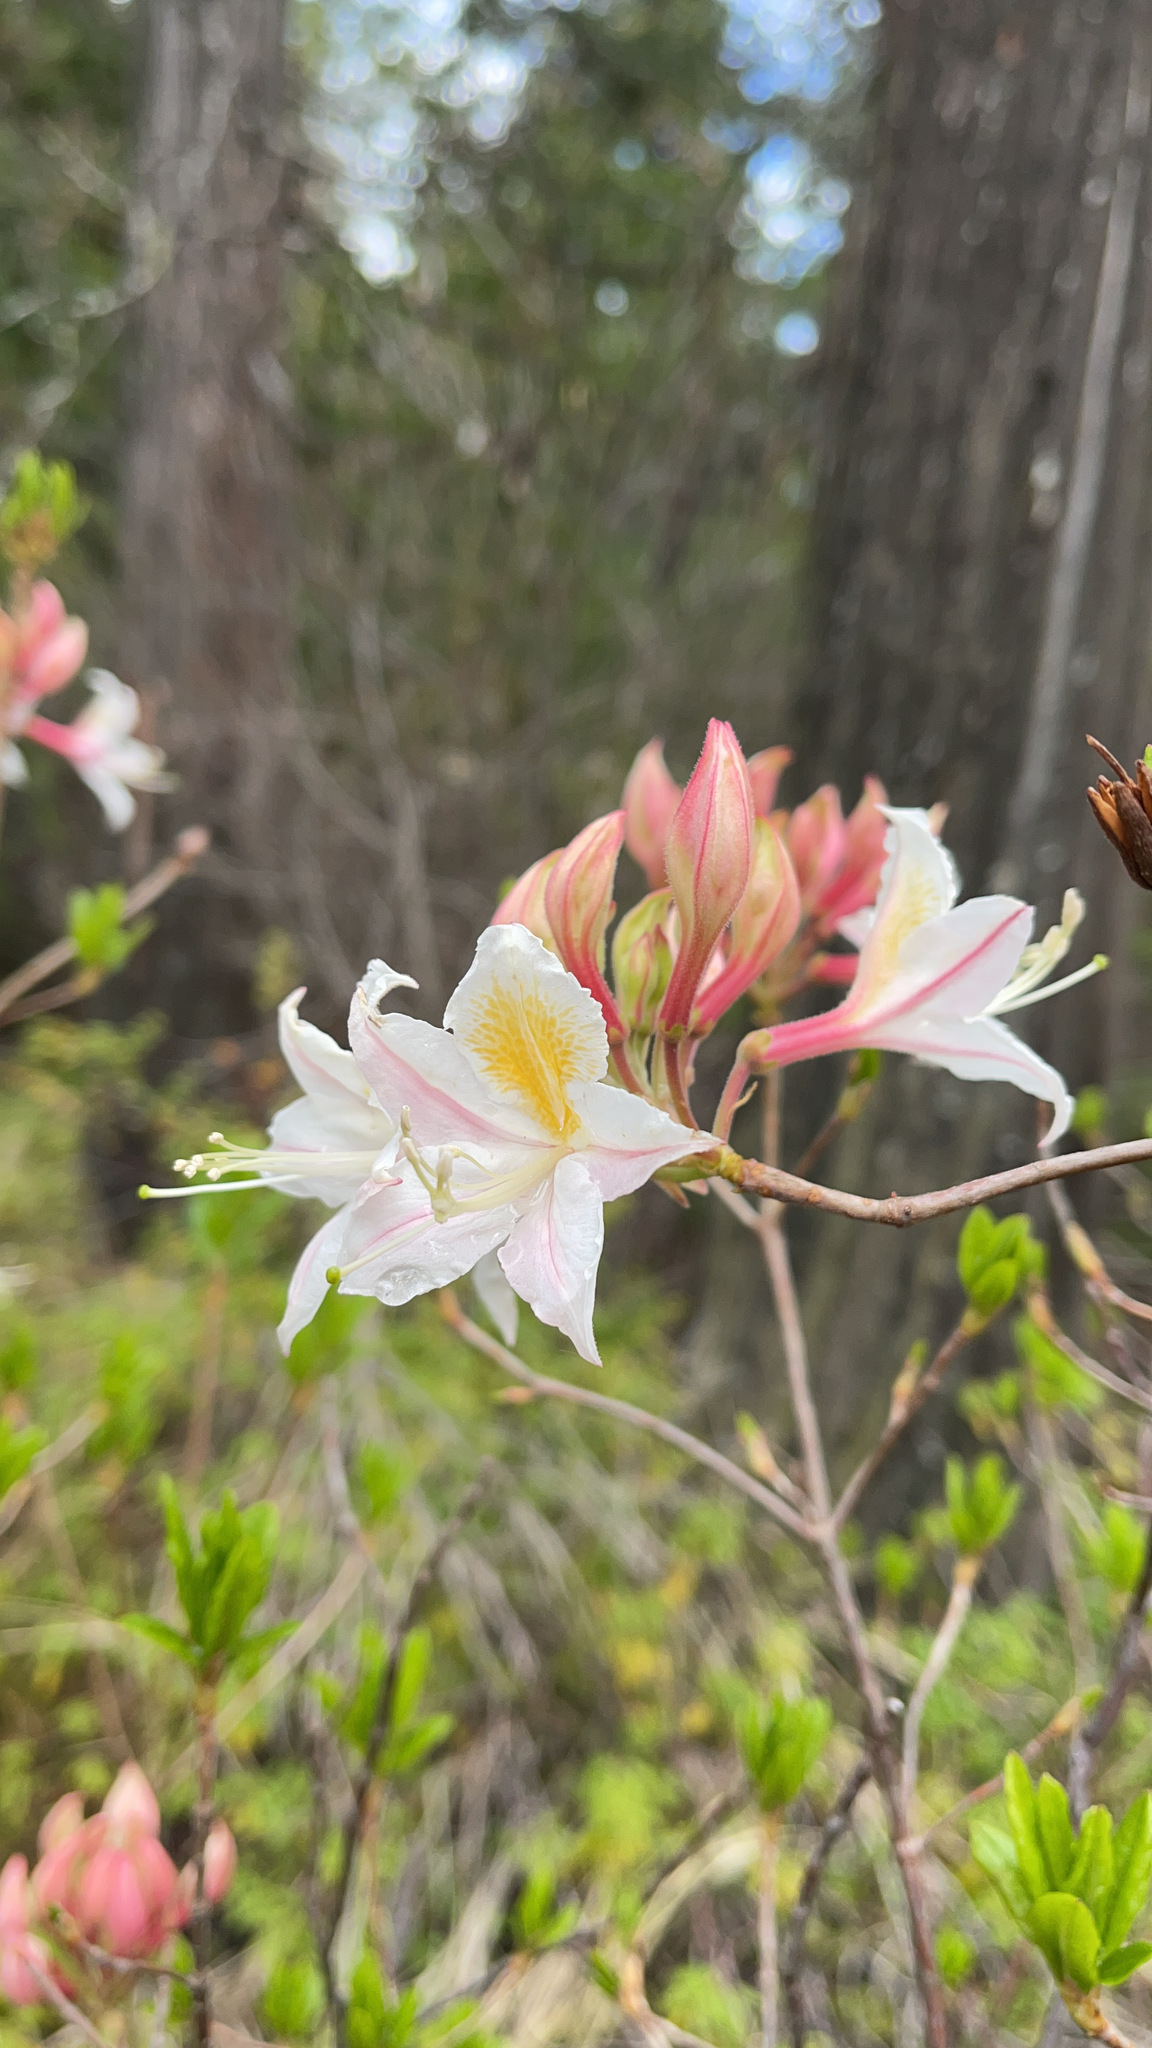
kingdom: Plantae
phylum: Tracheophyta
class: Magnoliopsida
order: Ericales
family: Ericaceae
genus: Rhododendron
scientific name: Rhododendron occidentale
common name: Western azalea
